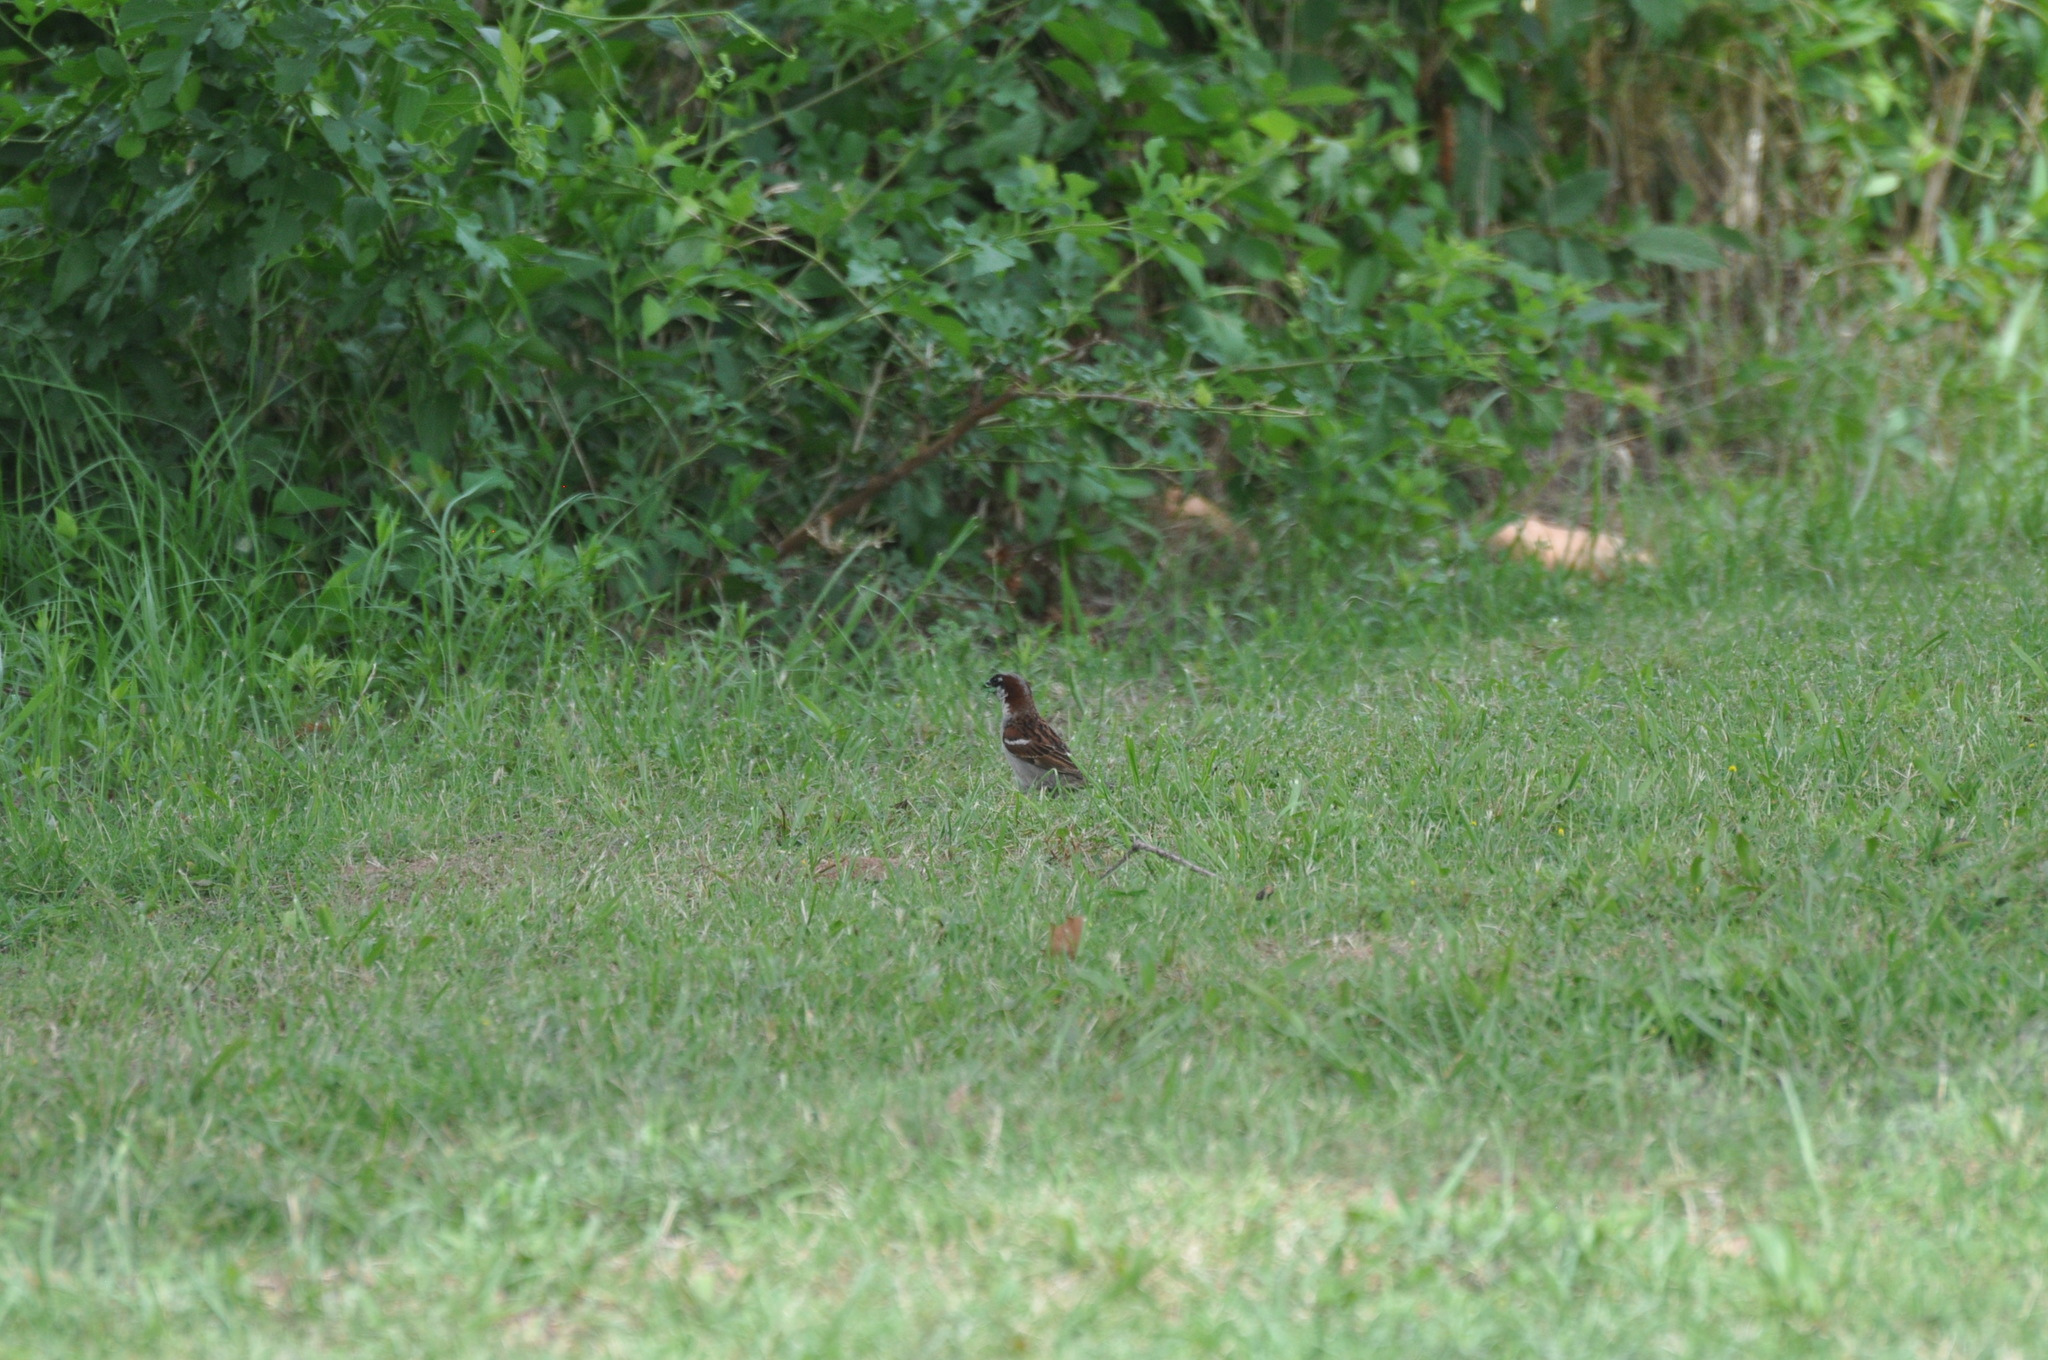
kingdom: Animalia
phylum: Chordata
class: Aves
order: Passeriformes
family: Passeridae
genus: Passer
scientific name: Passer domesticus
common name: House sparrow
